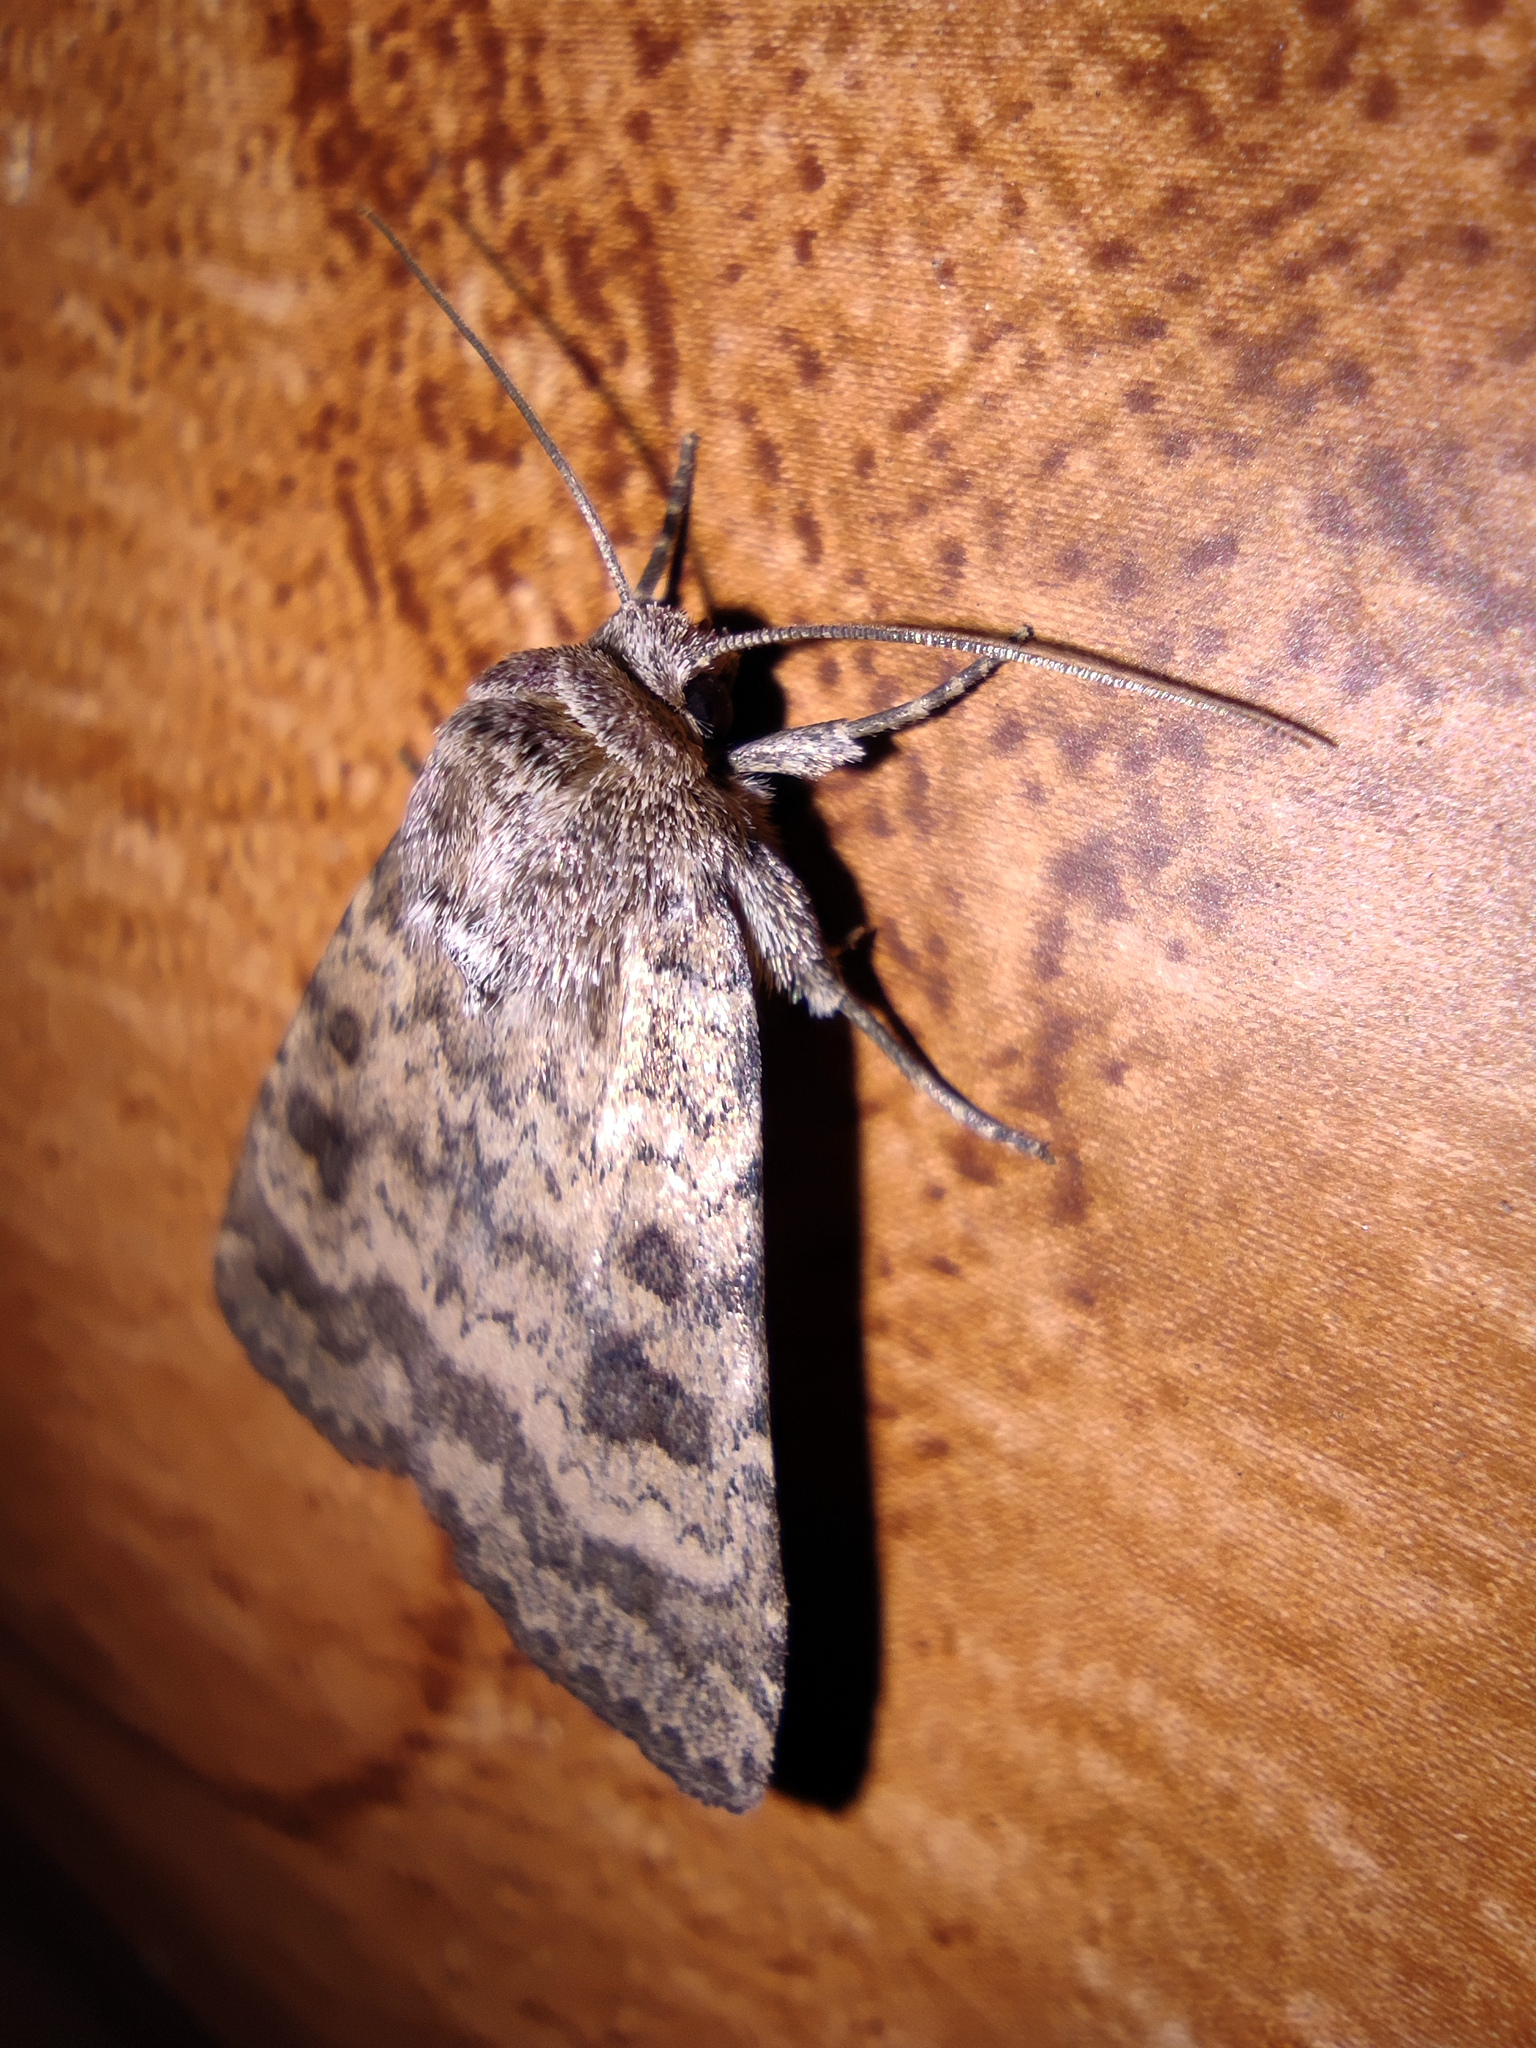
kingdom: Animalia
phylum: Arthropoda
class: Insecta
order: Lepidoptera
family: Noctuidae
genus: Caradrina
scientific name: Caradrina morpheus
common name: Mottled rustic
